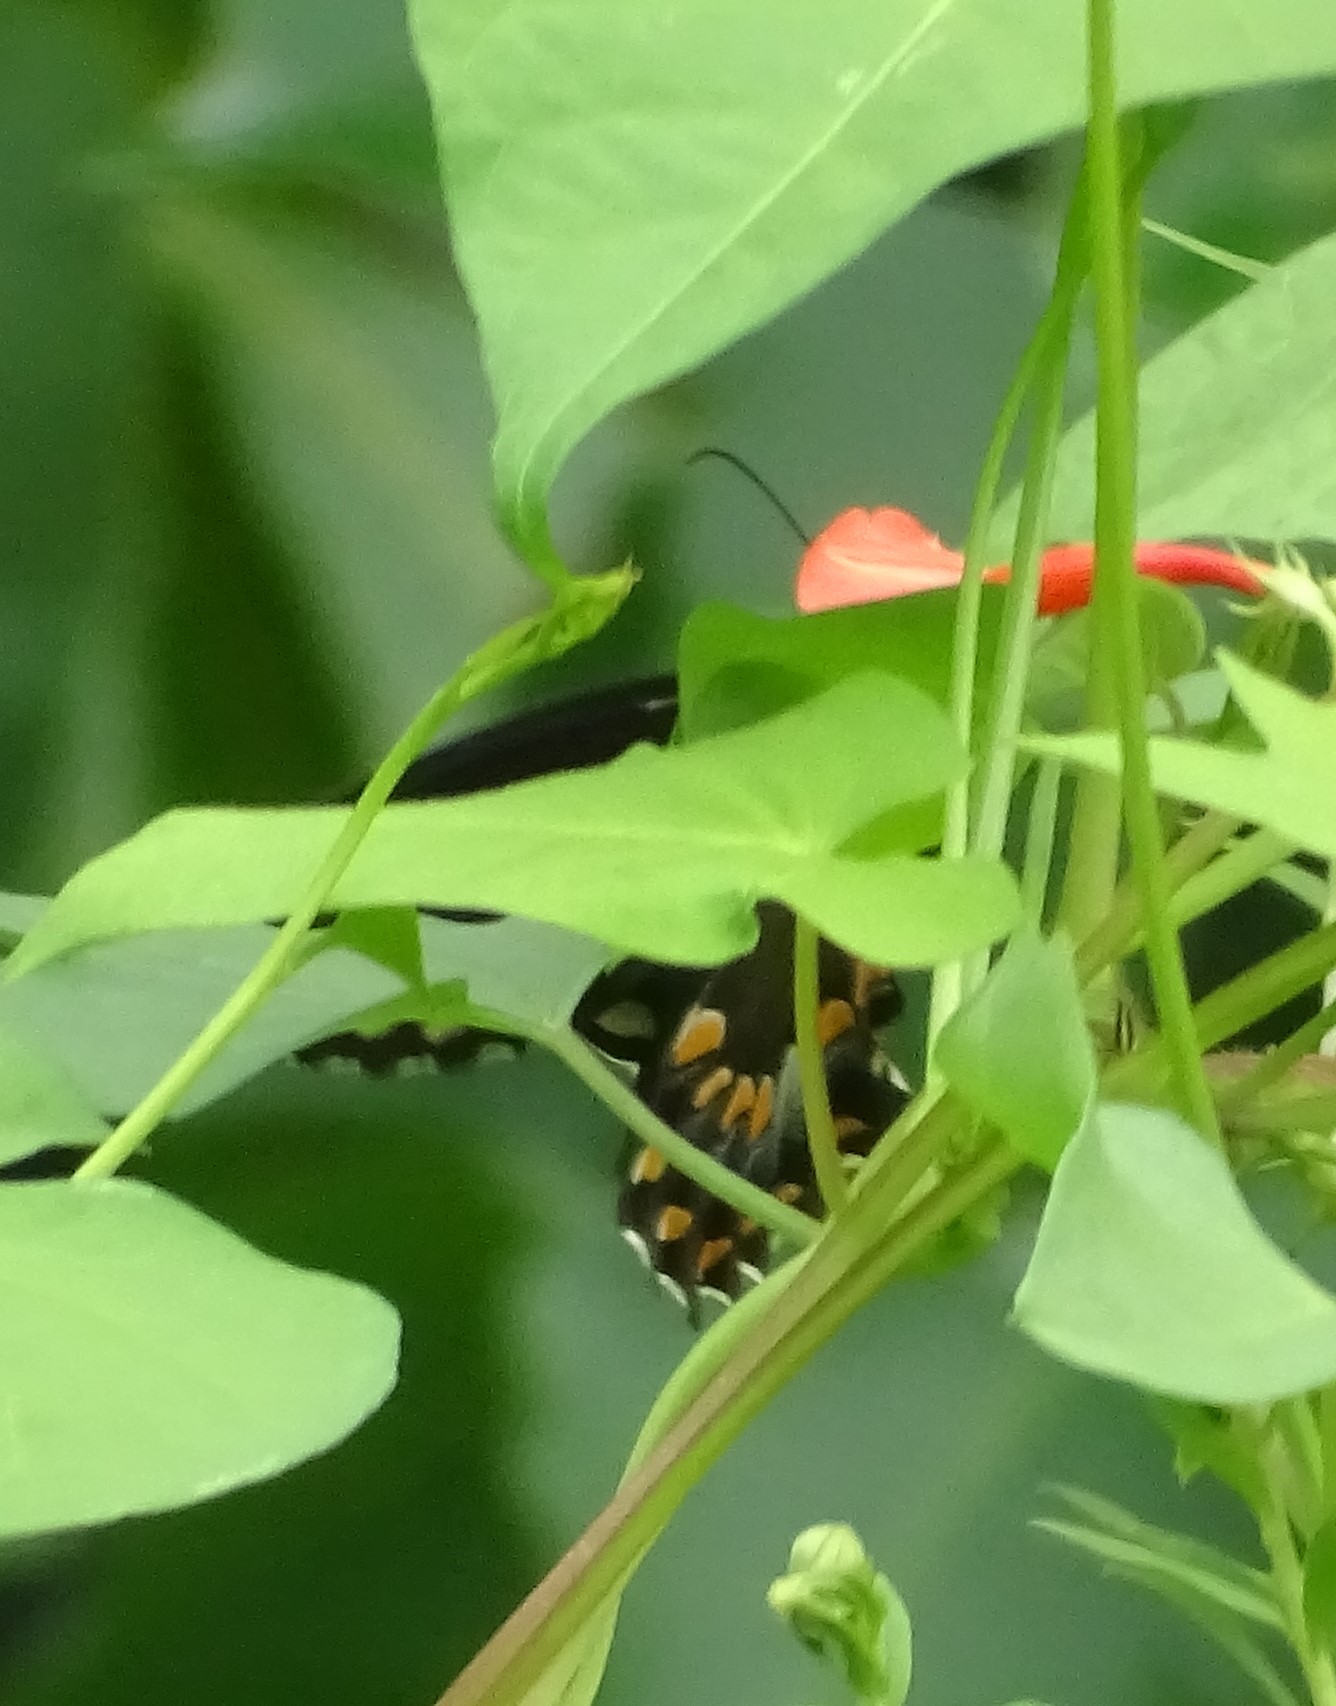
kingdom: Animalia
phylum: Arthropoda
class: Insecta
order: Lepidoptera
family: Papilionidae
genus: Papilio
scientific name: Papilio troilus
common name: Spicebush swallowtail
